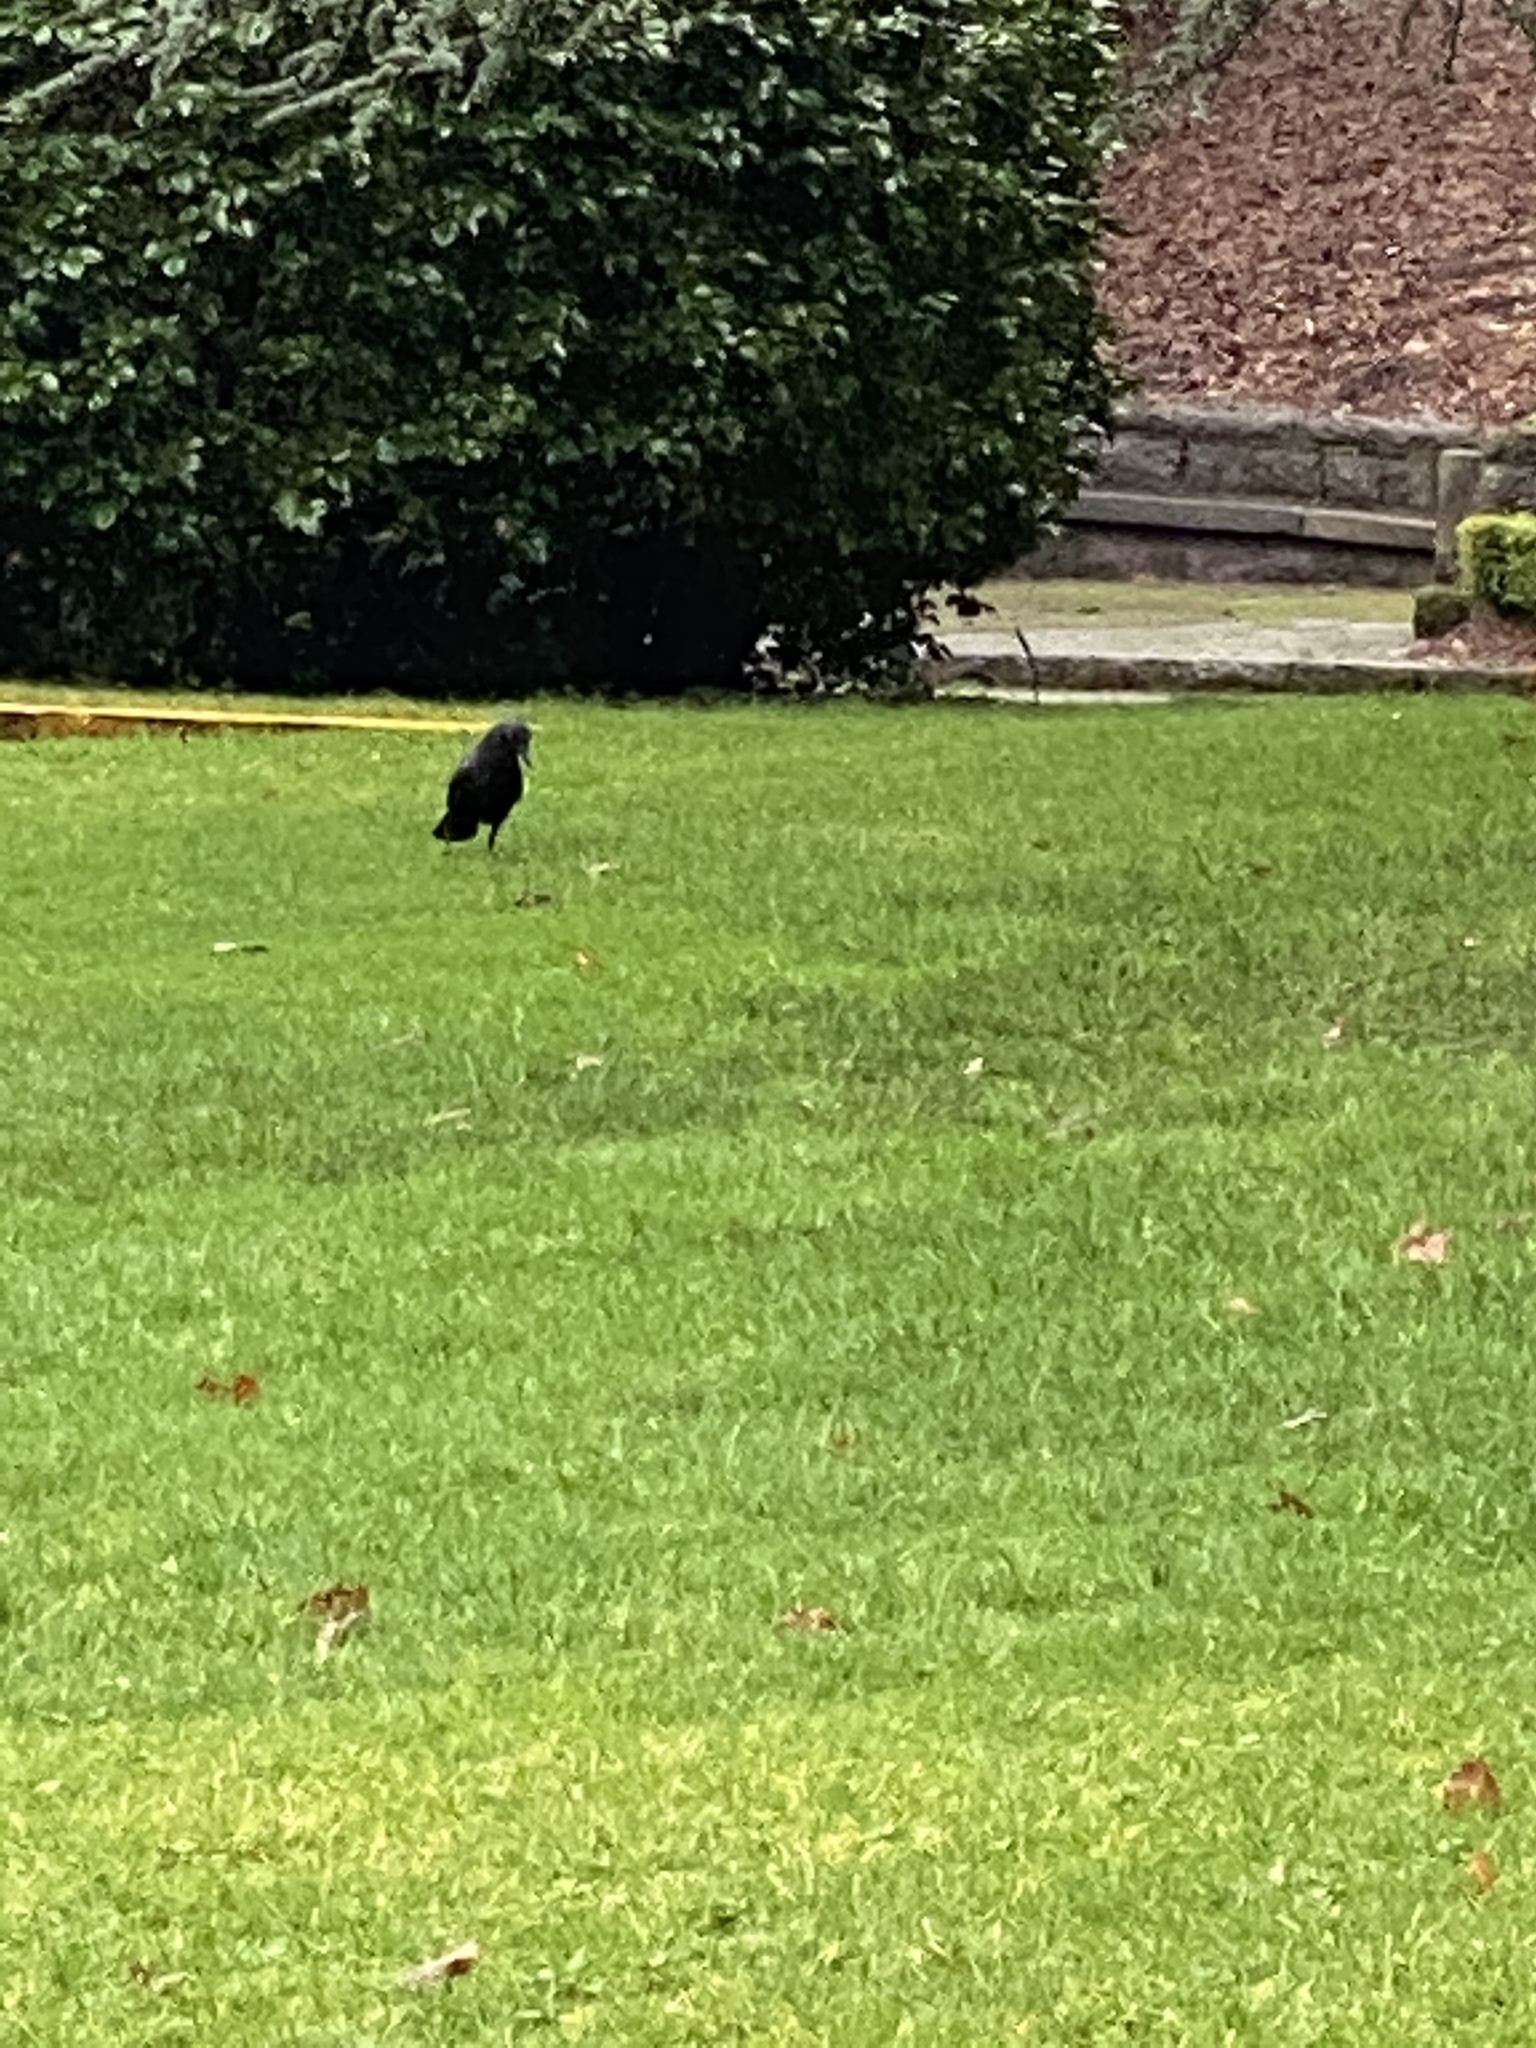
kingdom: Animalia
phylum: Chordata
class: Aves
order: Passeriformes
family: Corvidae
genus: Corvus
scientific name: Corvus brachyrhynchos
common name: American crow
